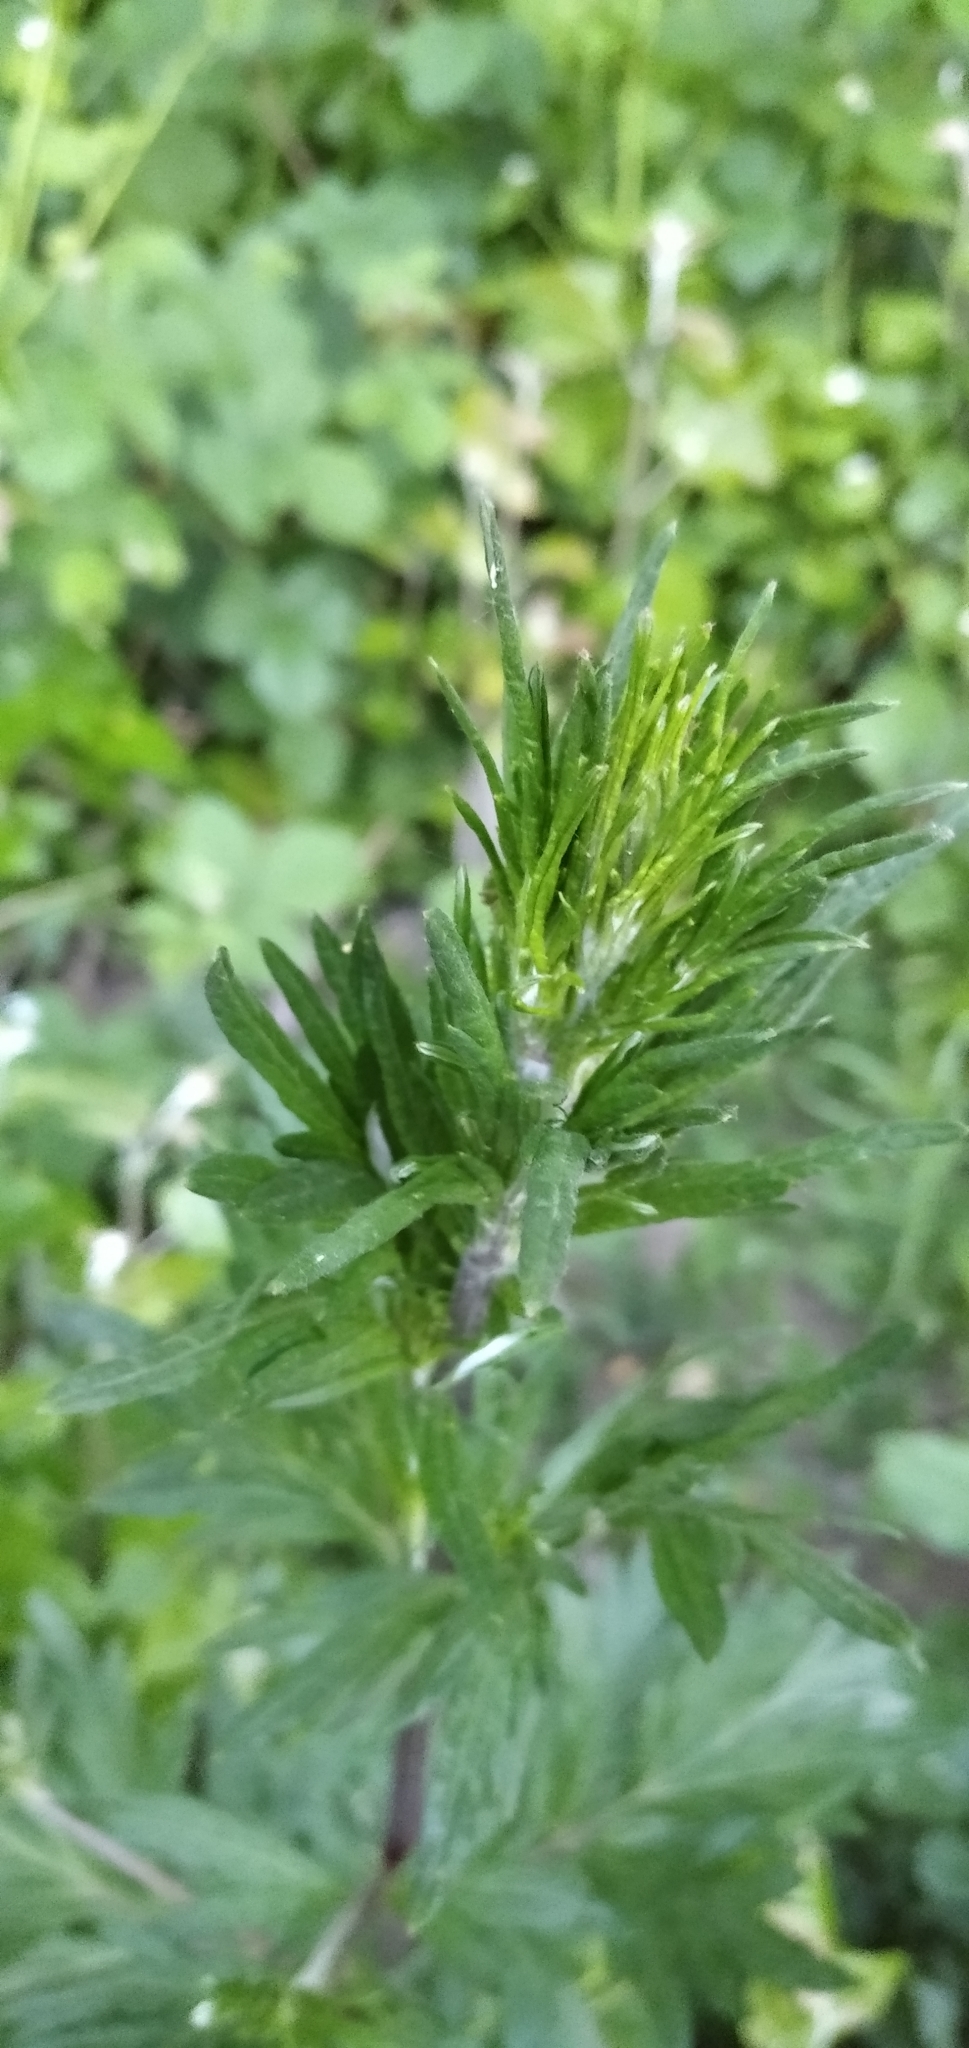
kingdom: Plantae
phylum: Tracheophyta
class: Magnoliopsida
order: Asterales
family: Asteraceae
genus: Artemisia
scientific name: Artemisia vulgaris
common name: Mugwort
